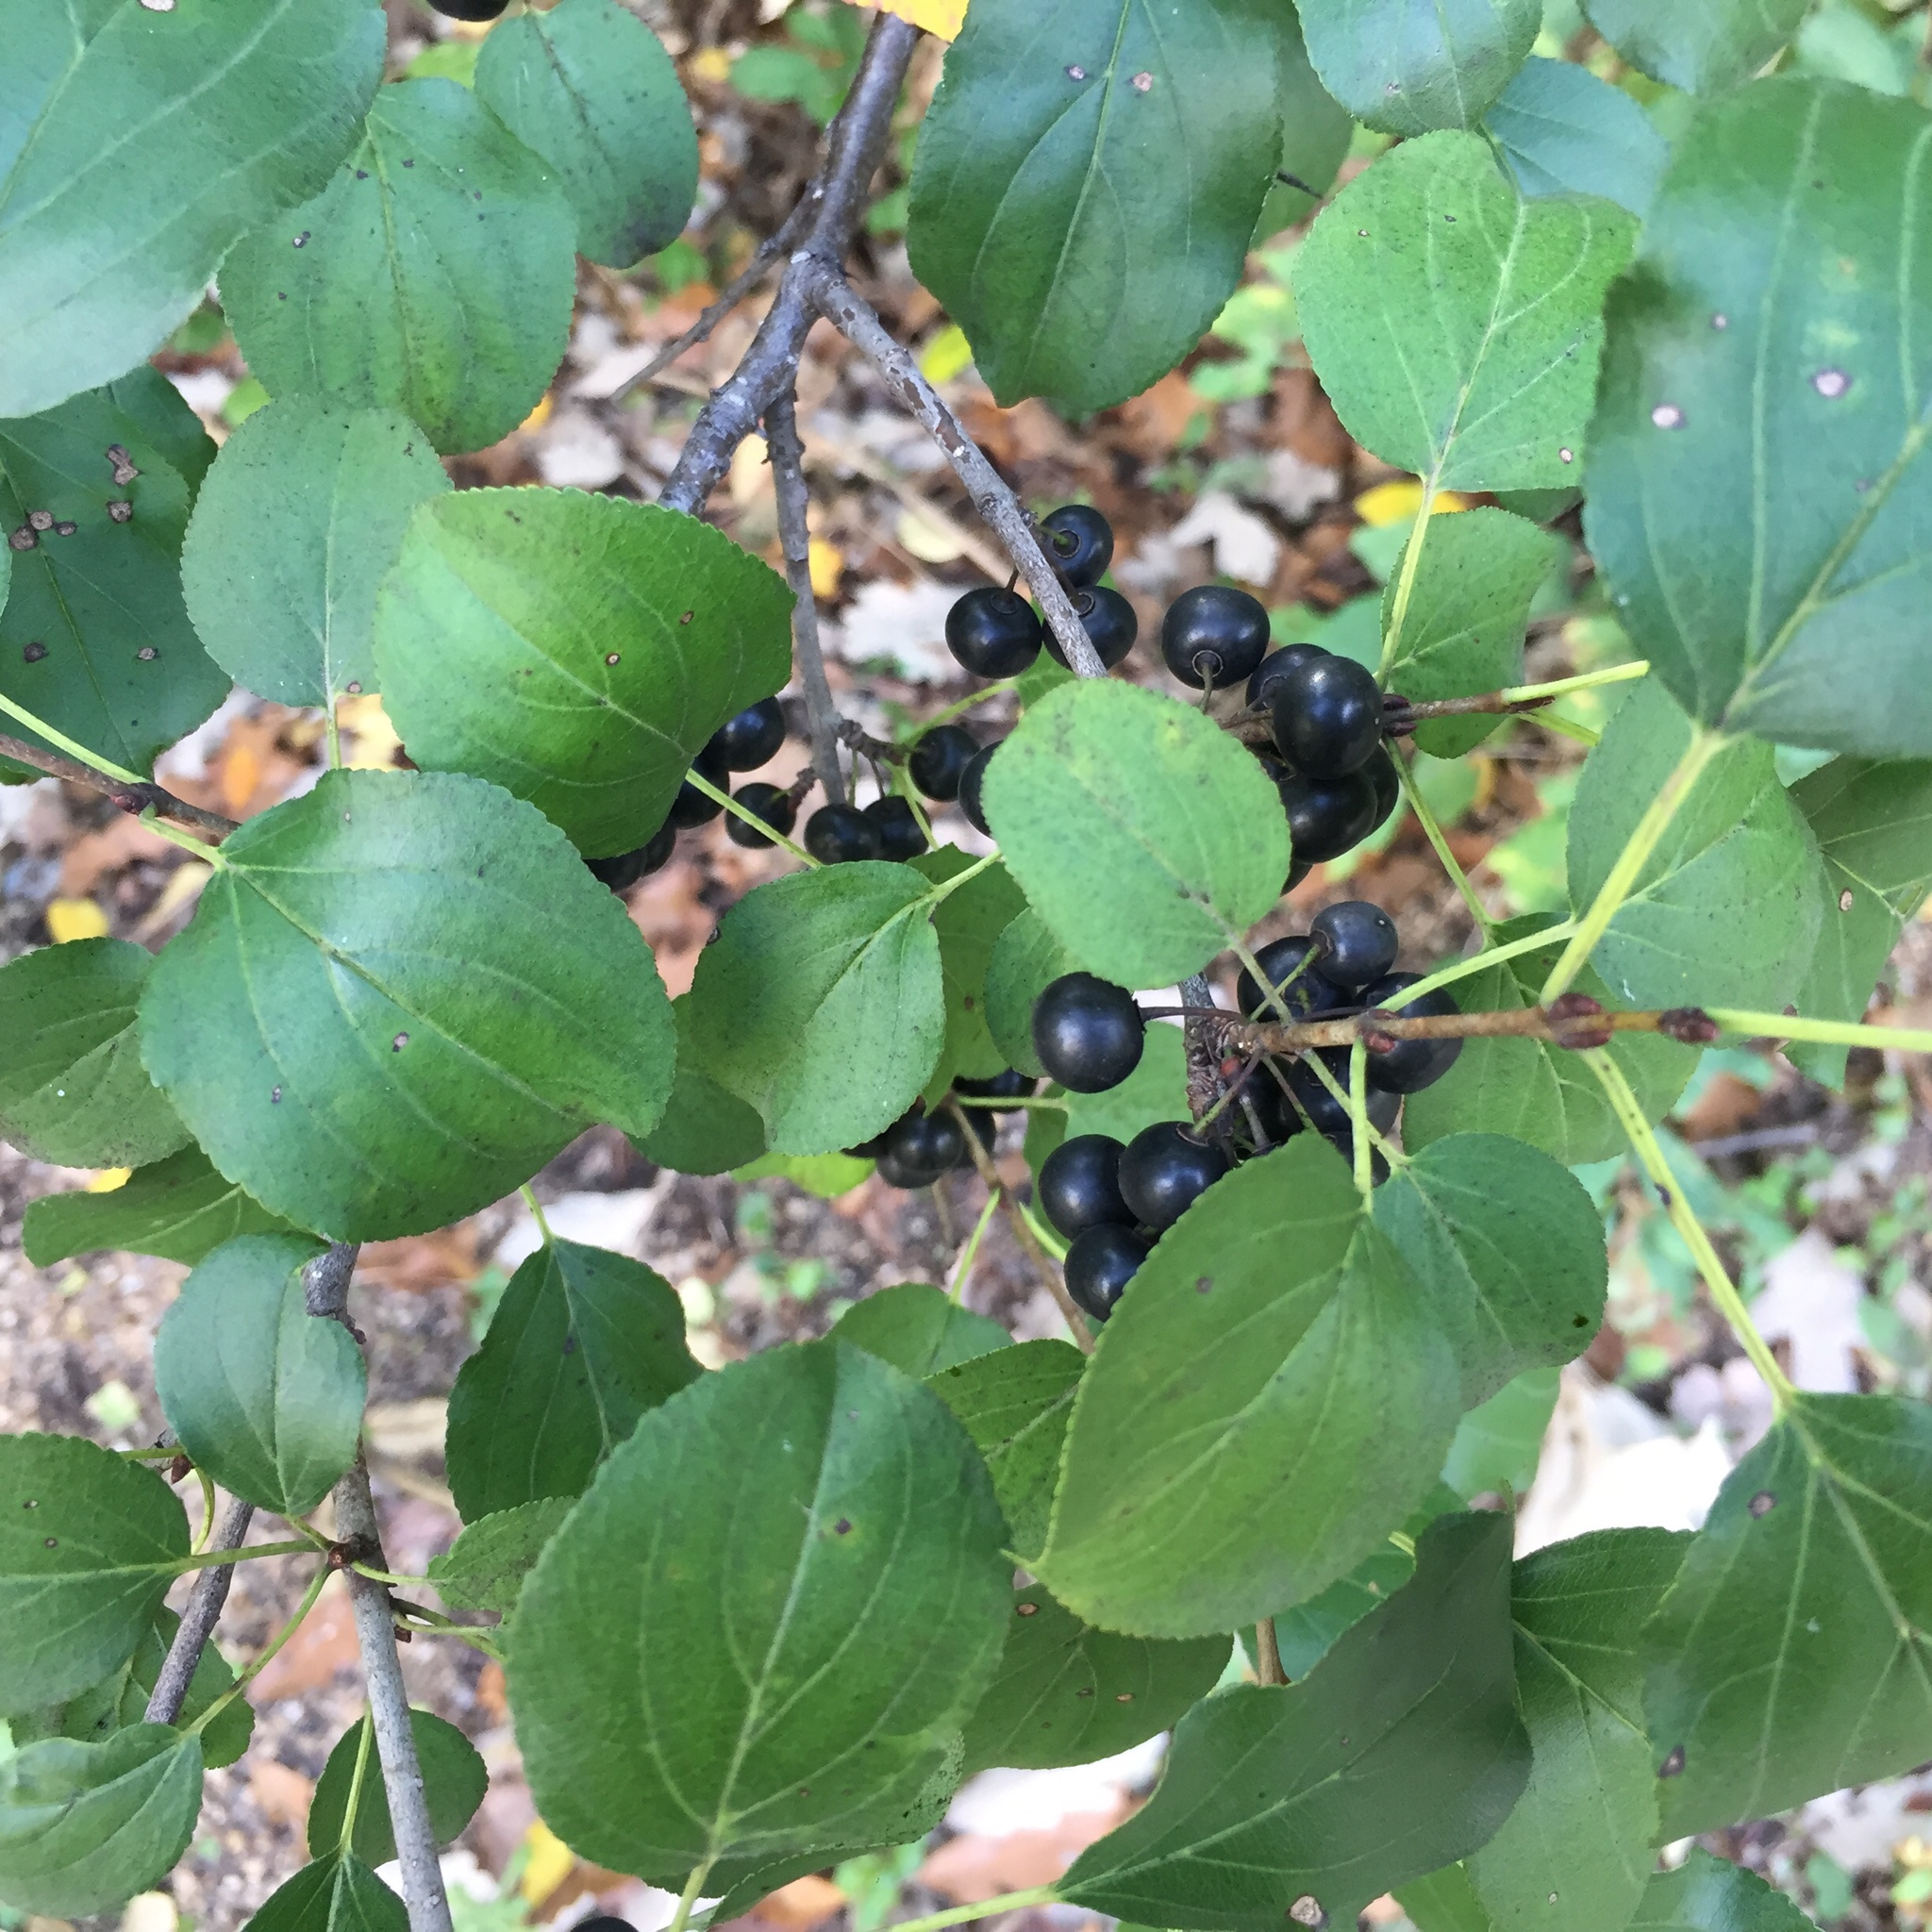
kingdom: Plantae
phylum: Tracheophyta
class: Magnoliopsida
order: Rosales
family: Rhamnaceae
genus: Rhamnus
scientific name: Rhamnus cathartica
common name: Common buckthorn
